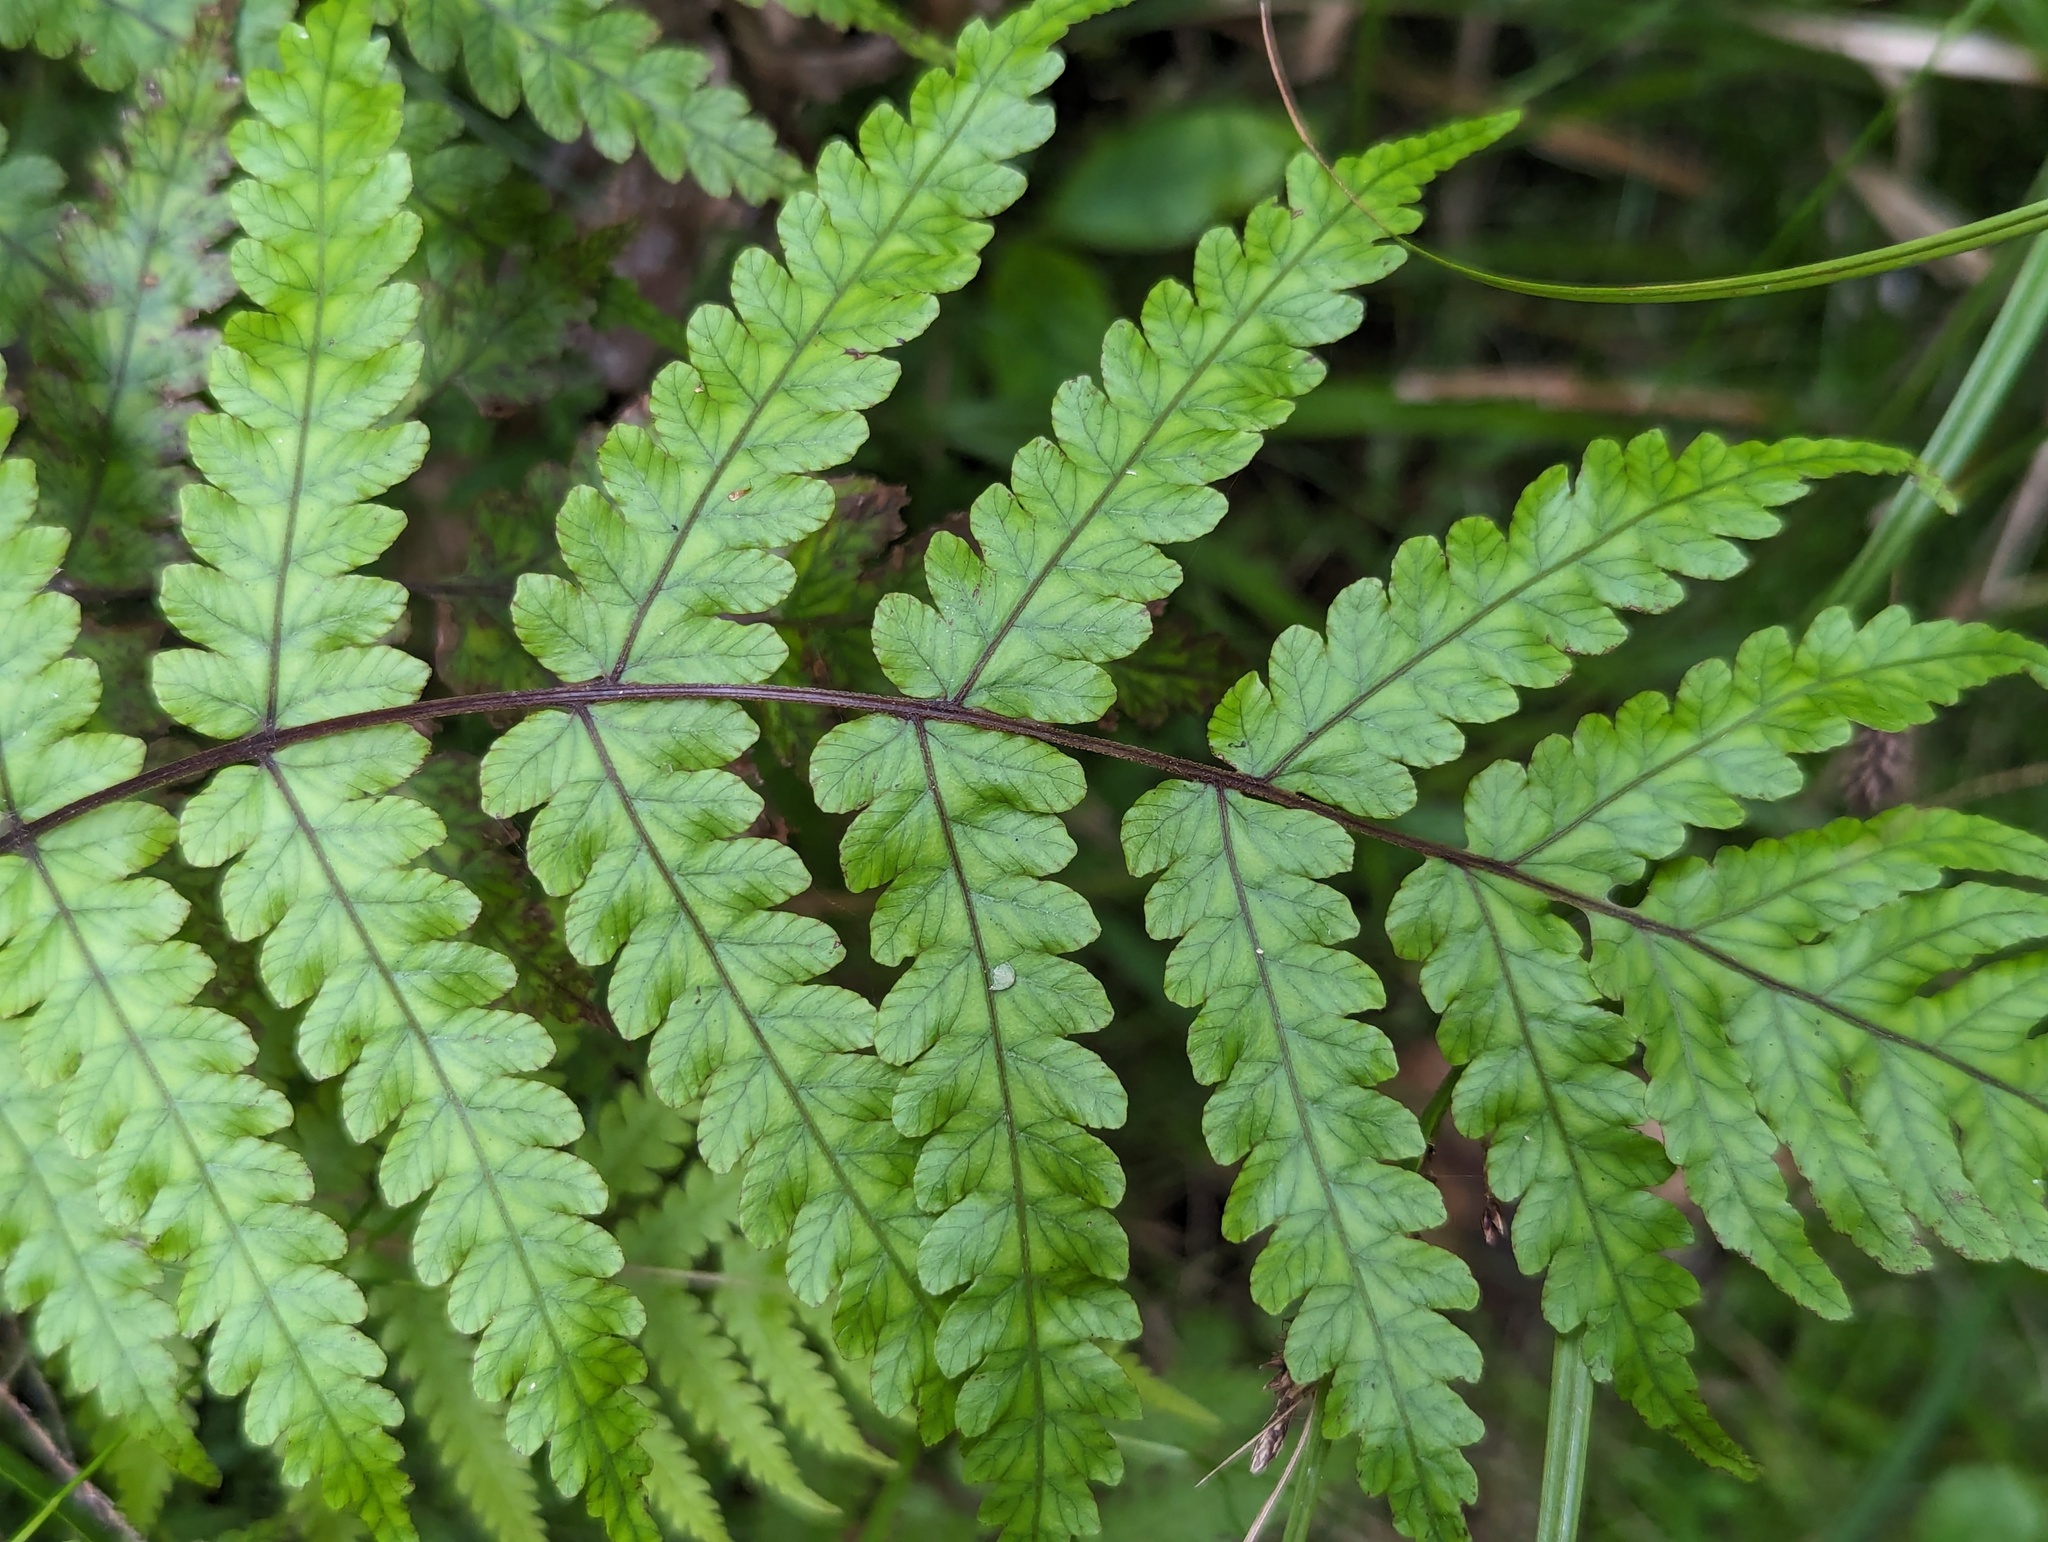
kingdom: Plantae
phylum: Tracheophyta
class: Polypodiopsida
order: Polypodiales
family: Thelypteridaceae
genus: Pakau
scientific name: Pakau pennigera
